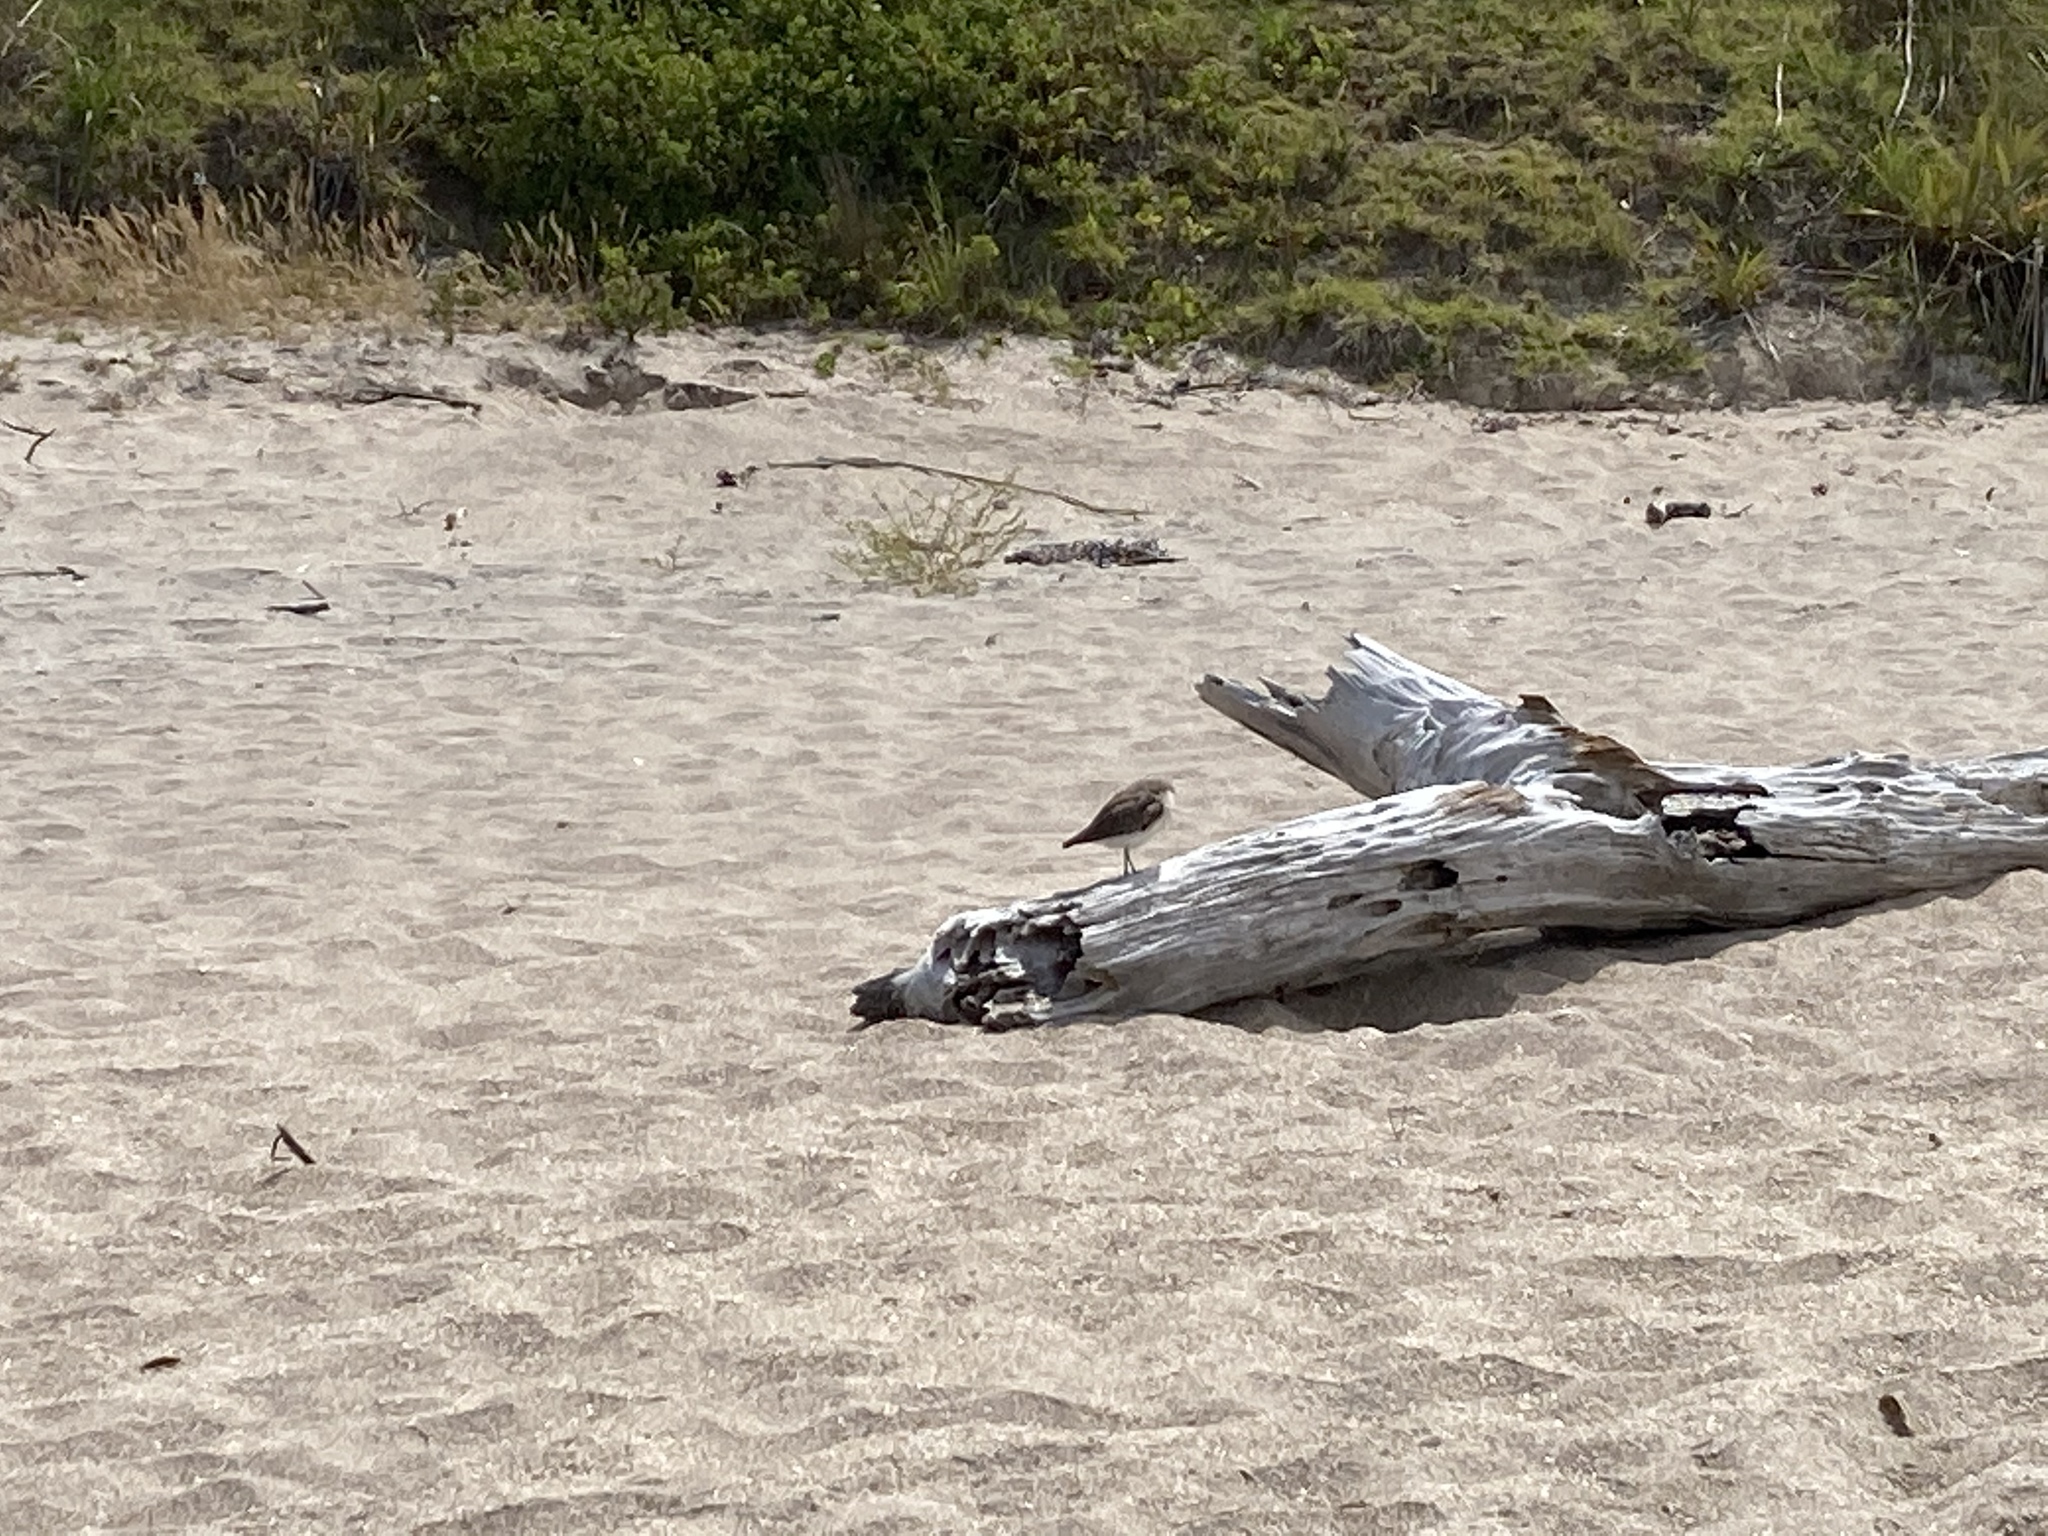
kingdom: Animalia
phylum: Chordata
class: Aves
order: Charadriiformes
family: Charadriidae
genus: Anarhynchus
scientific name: Anarhynchus
